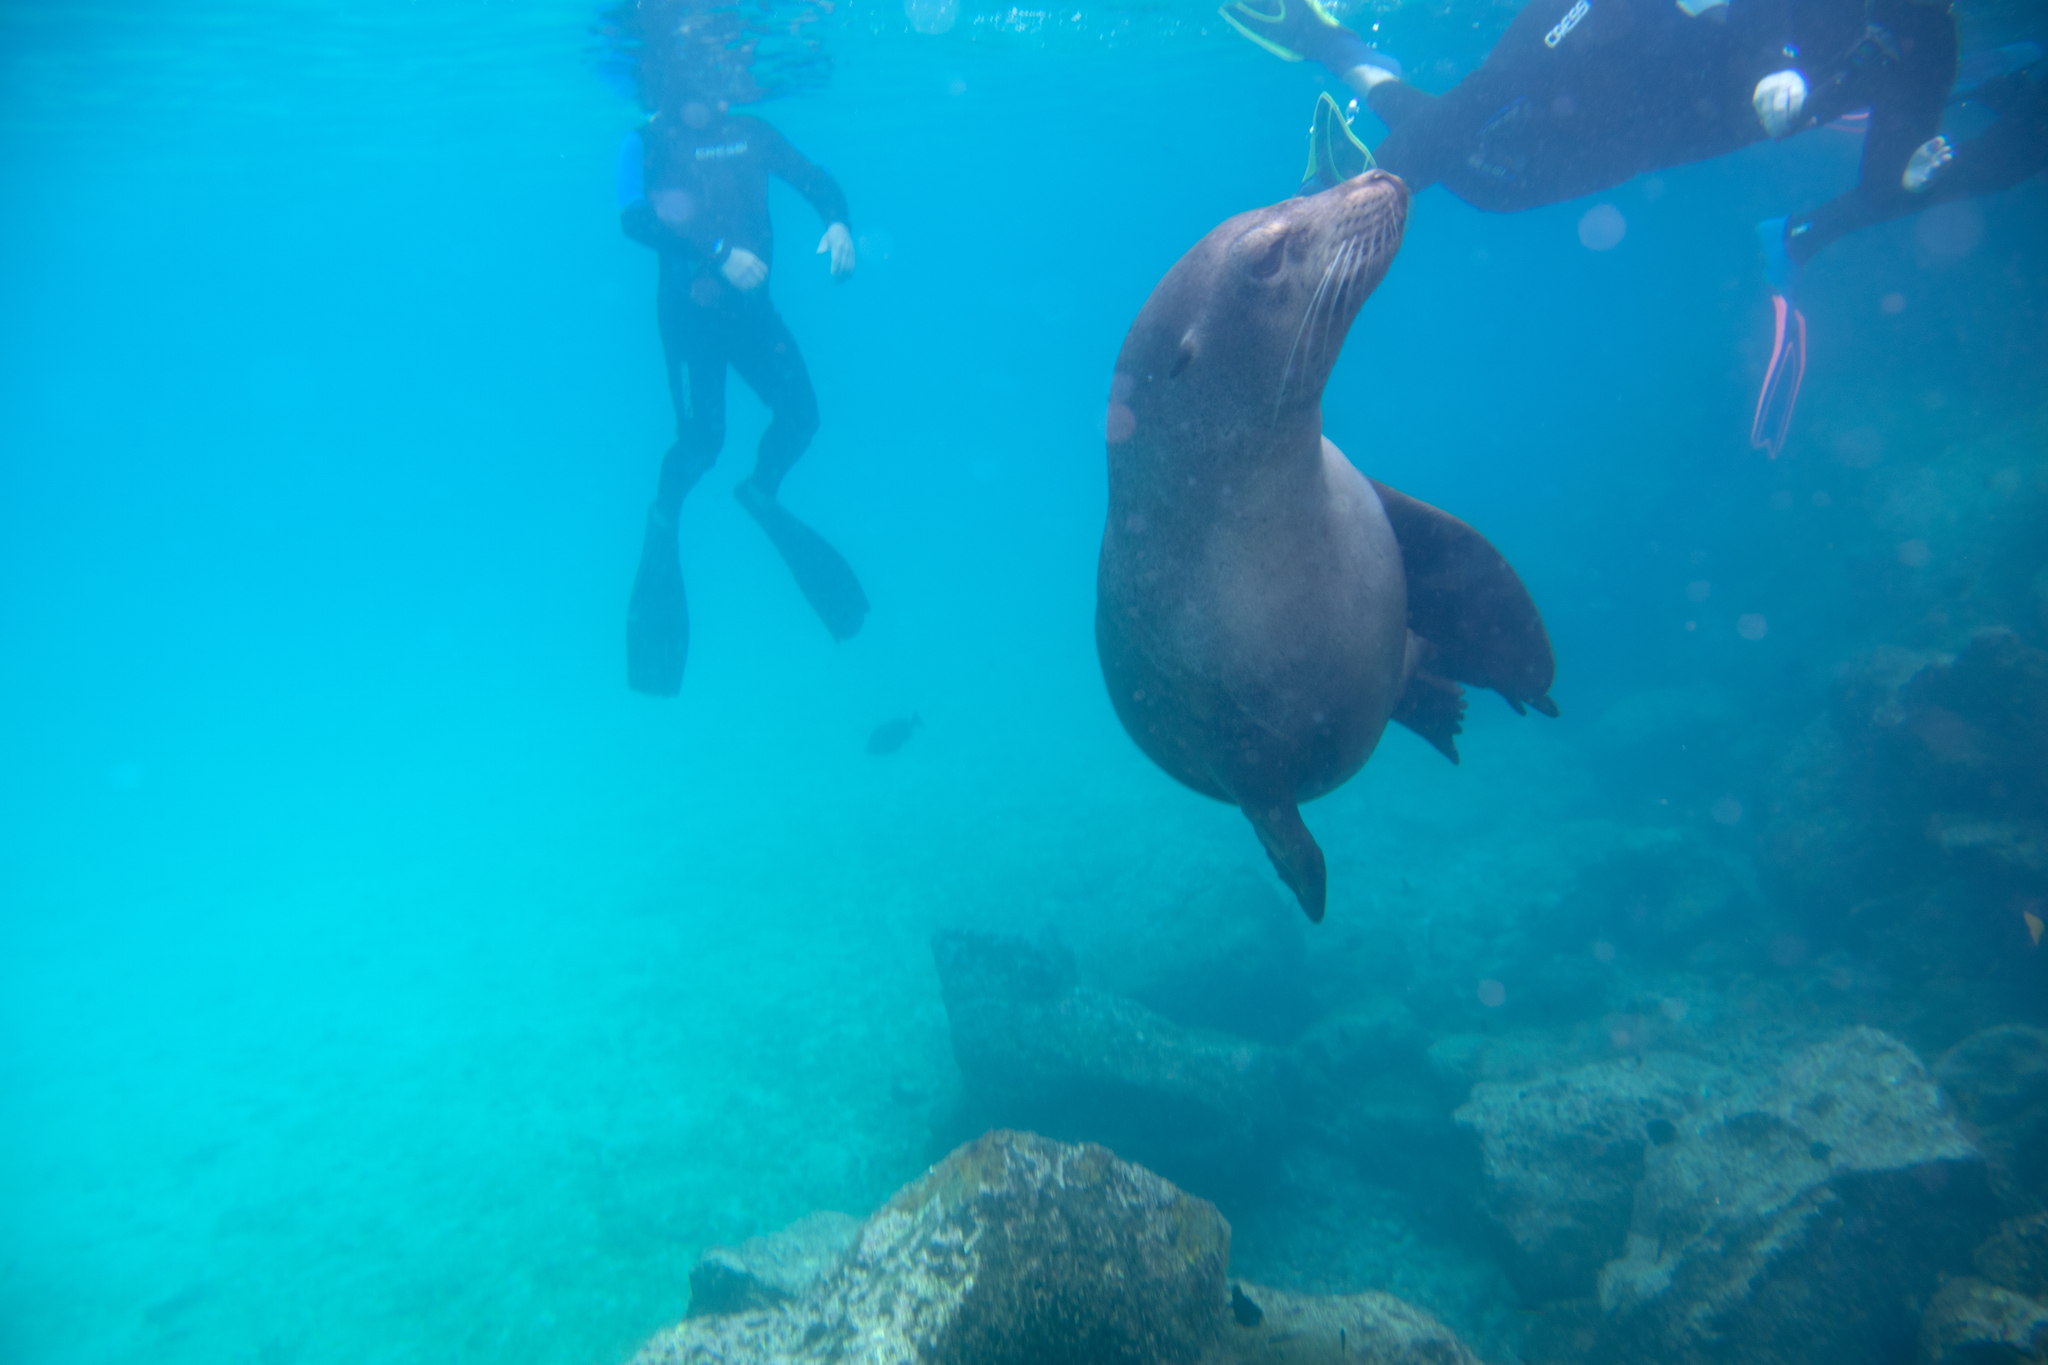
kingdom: Animalia
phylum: Chordata
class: Mammalia
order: Carnivora
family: Otariidae
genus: Zalophus
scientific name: Zalophus wollebaeki
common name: Galapagos sea lion
